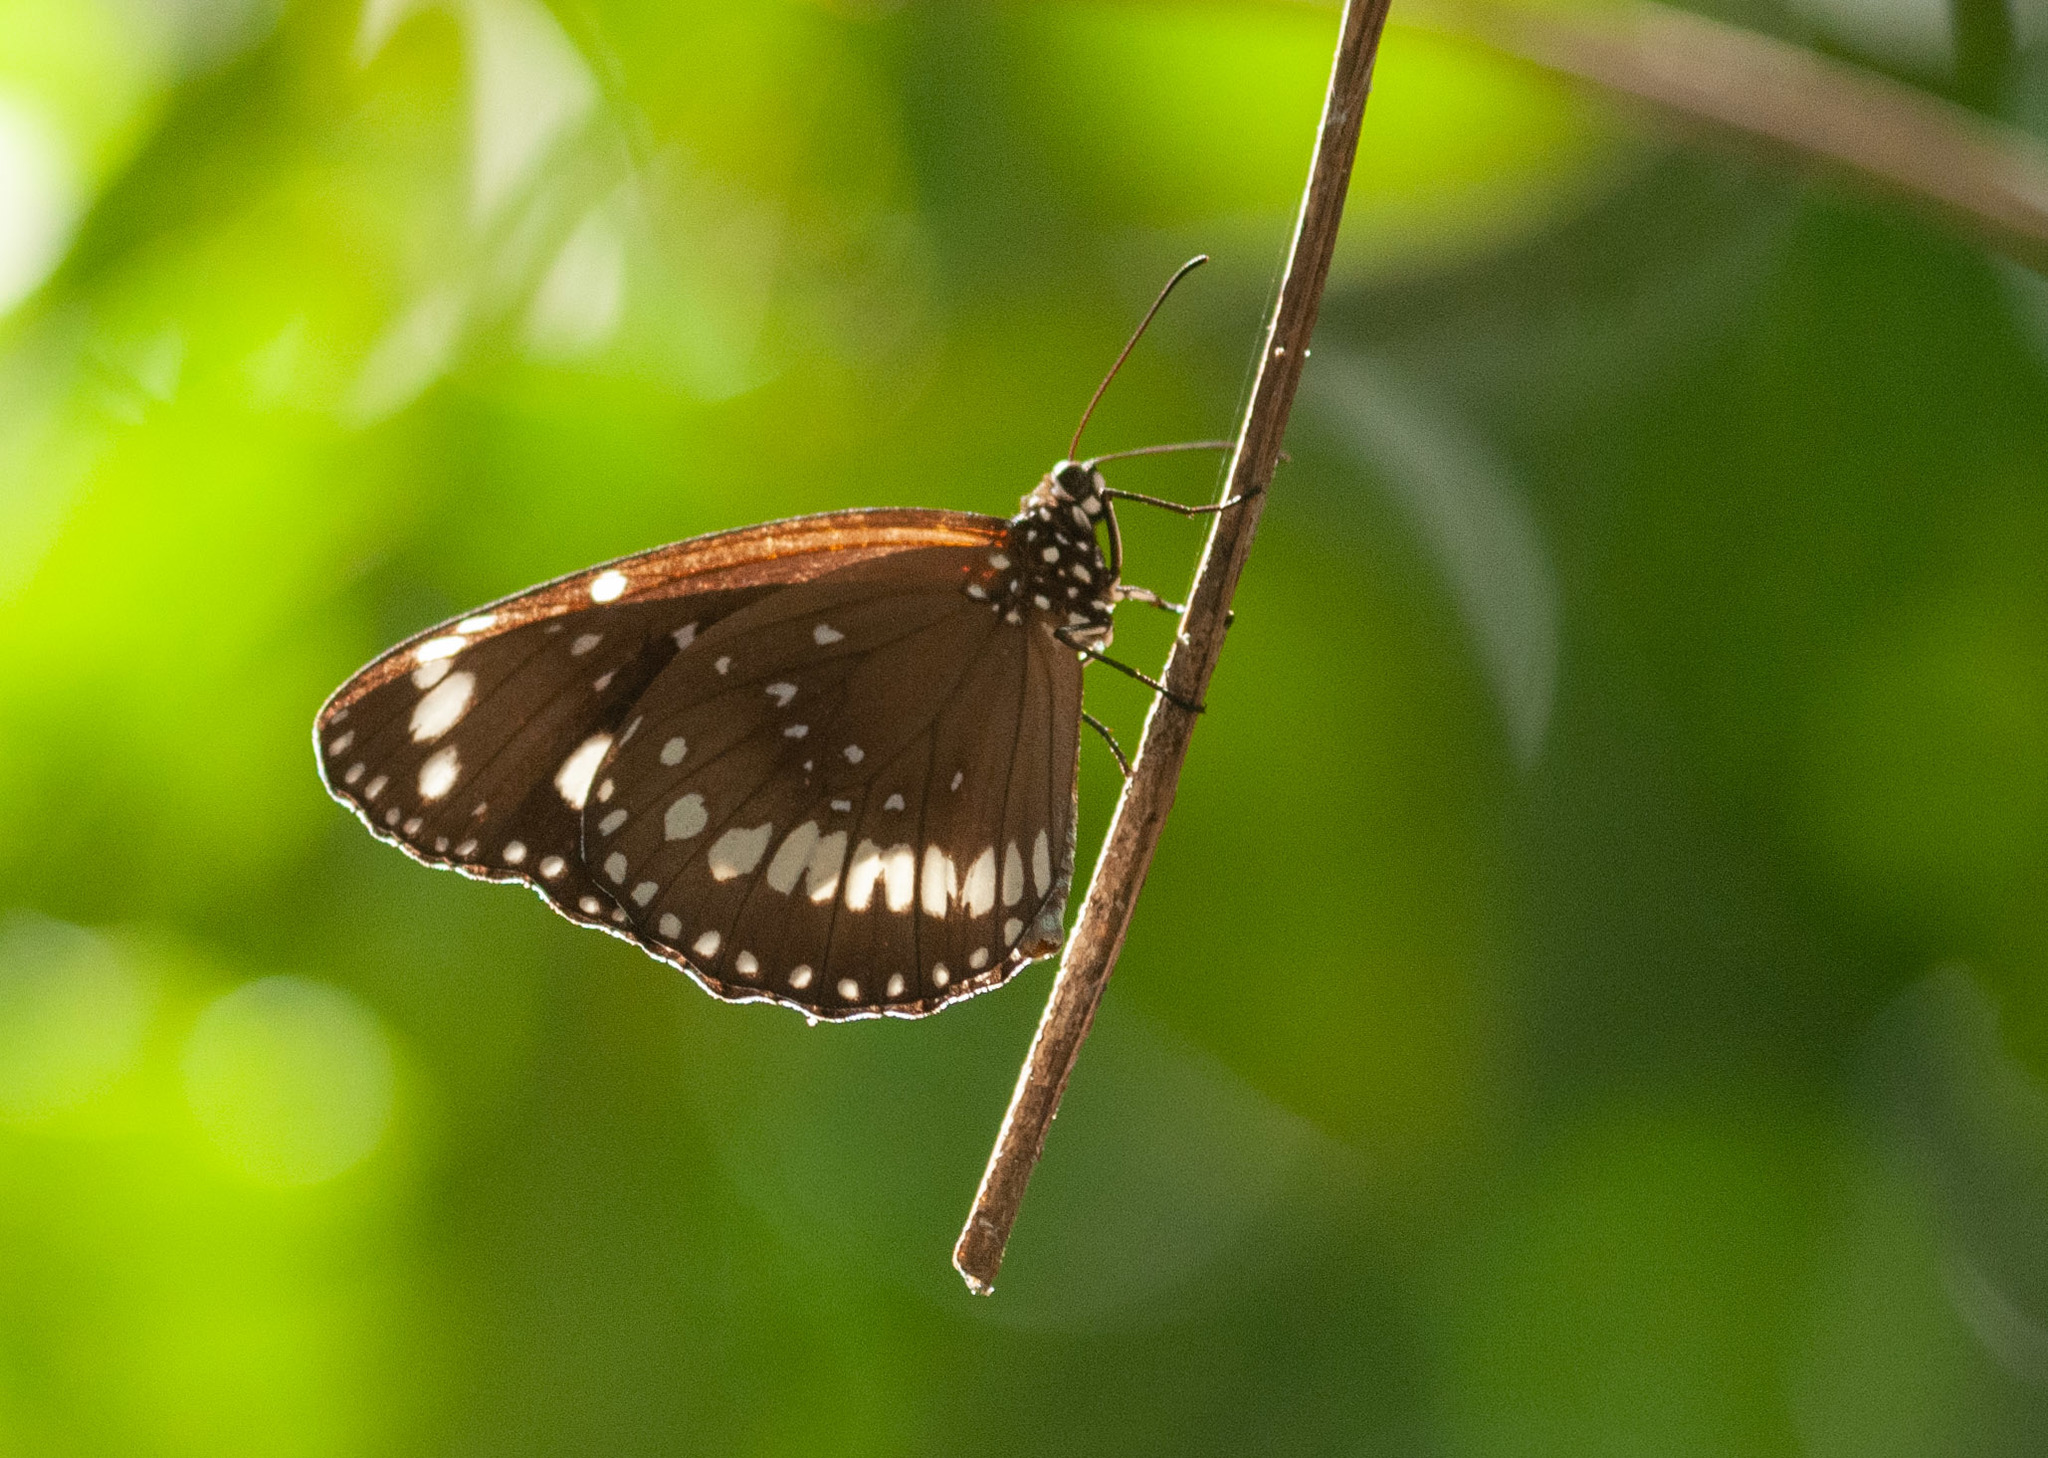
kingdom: Animalia
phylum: Arthropoda
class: Insecta
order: Lepidoptera
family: Nymphalidae
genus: Euploea
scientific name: Euploea core
